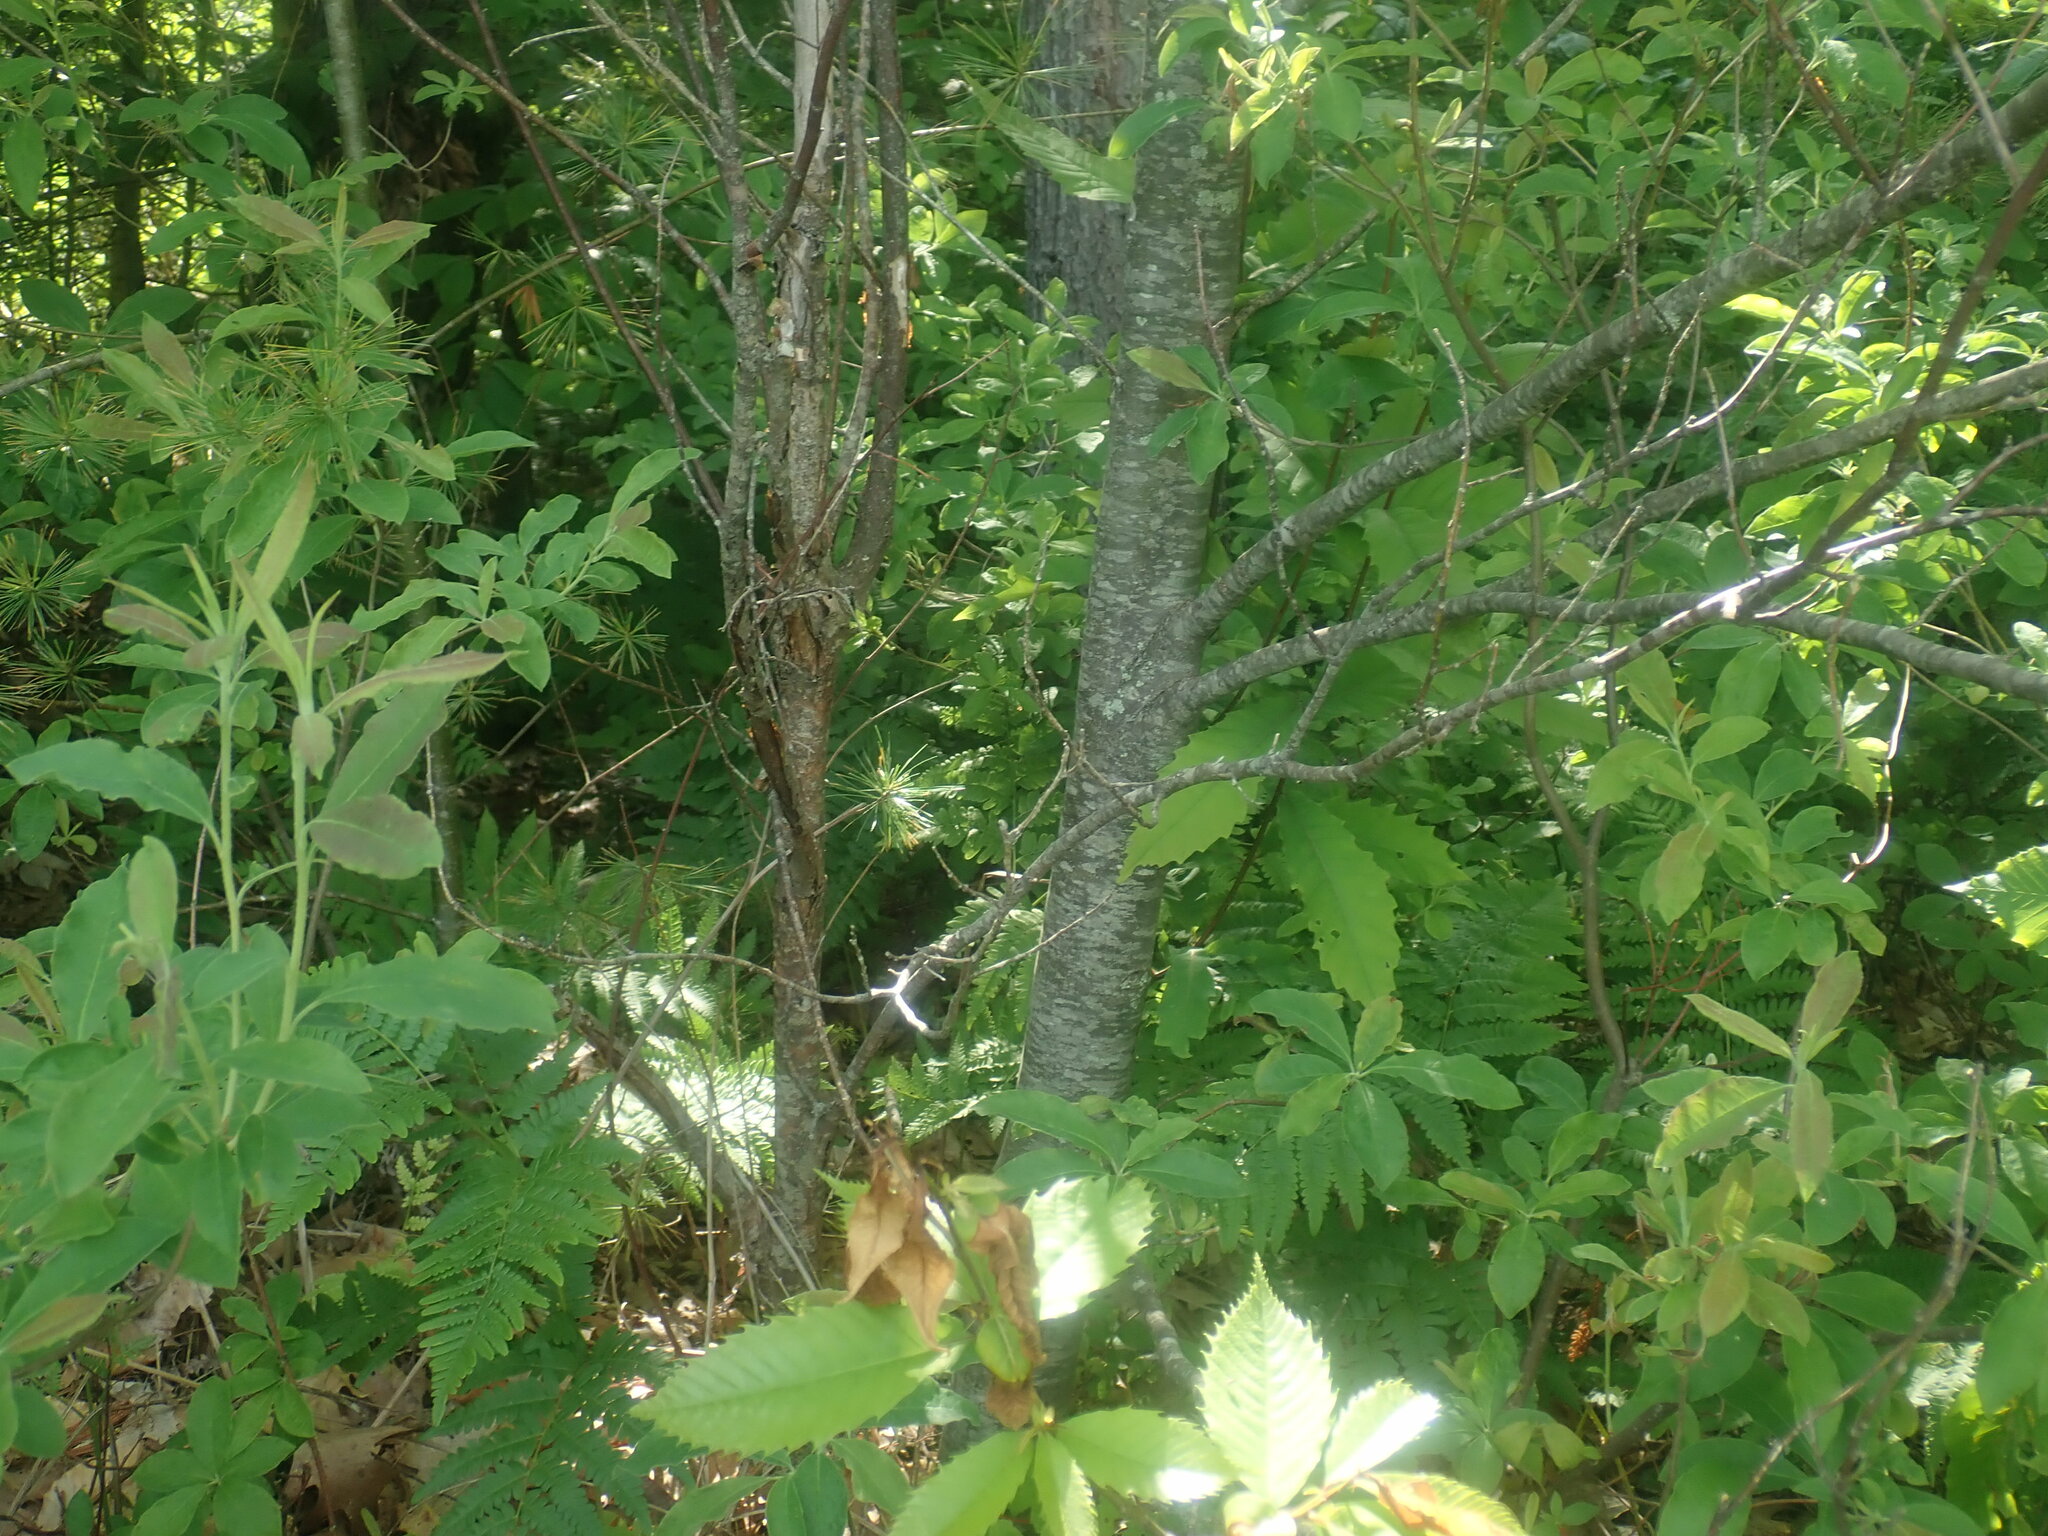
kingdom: Plantae
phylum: Tracheophyta
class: Magnoliopsida
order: Fagales
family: Fagaceae
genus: Castanea
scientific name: Castanea dentata
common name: American chestnut
